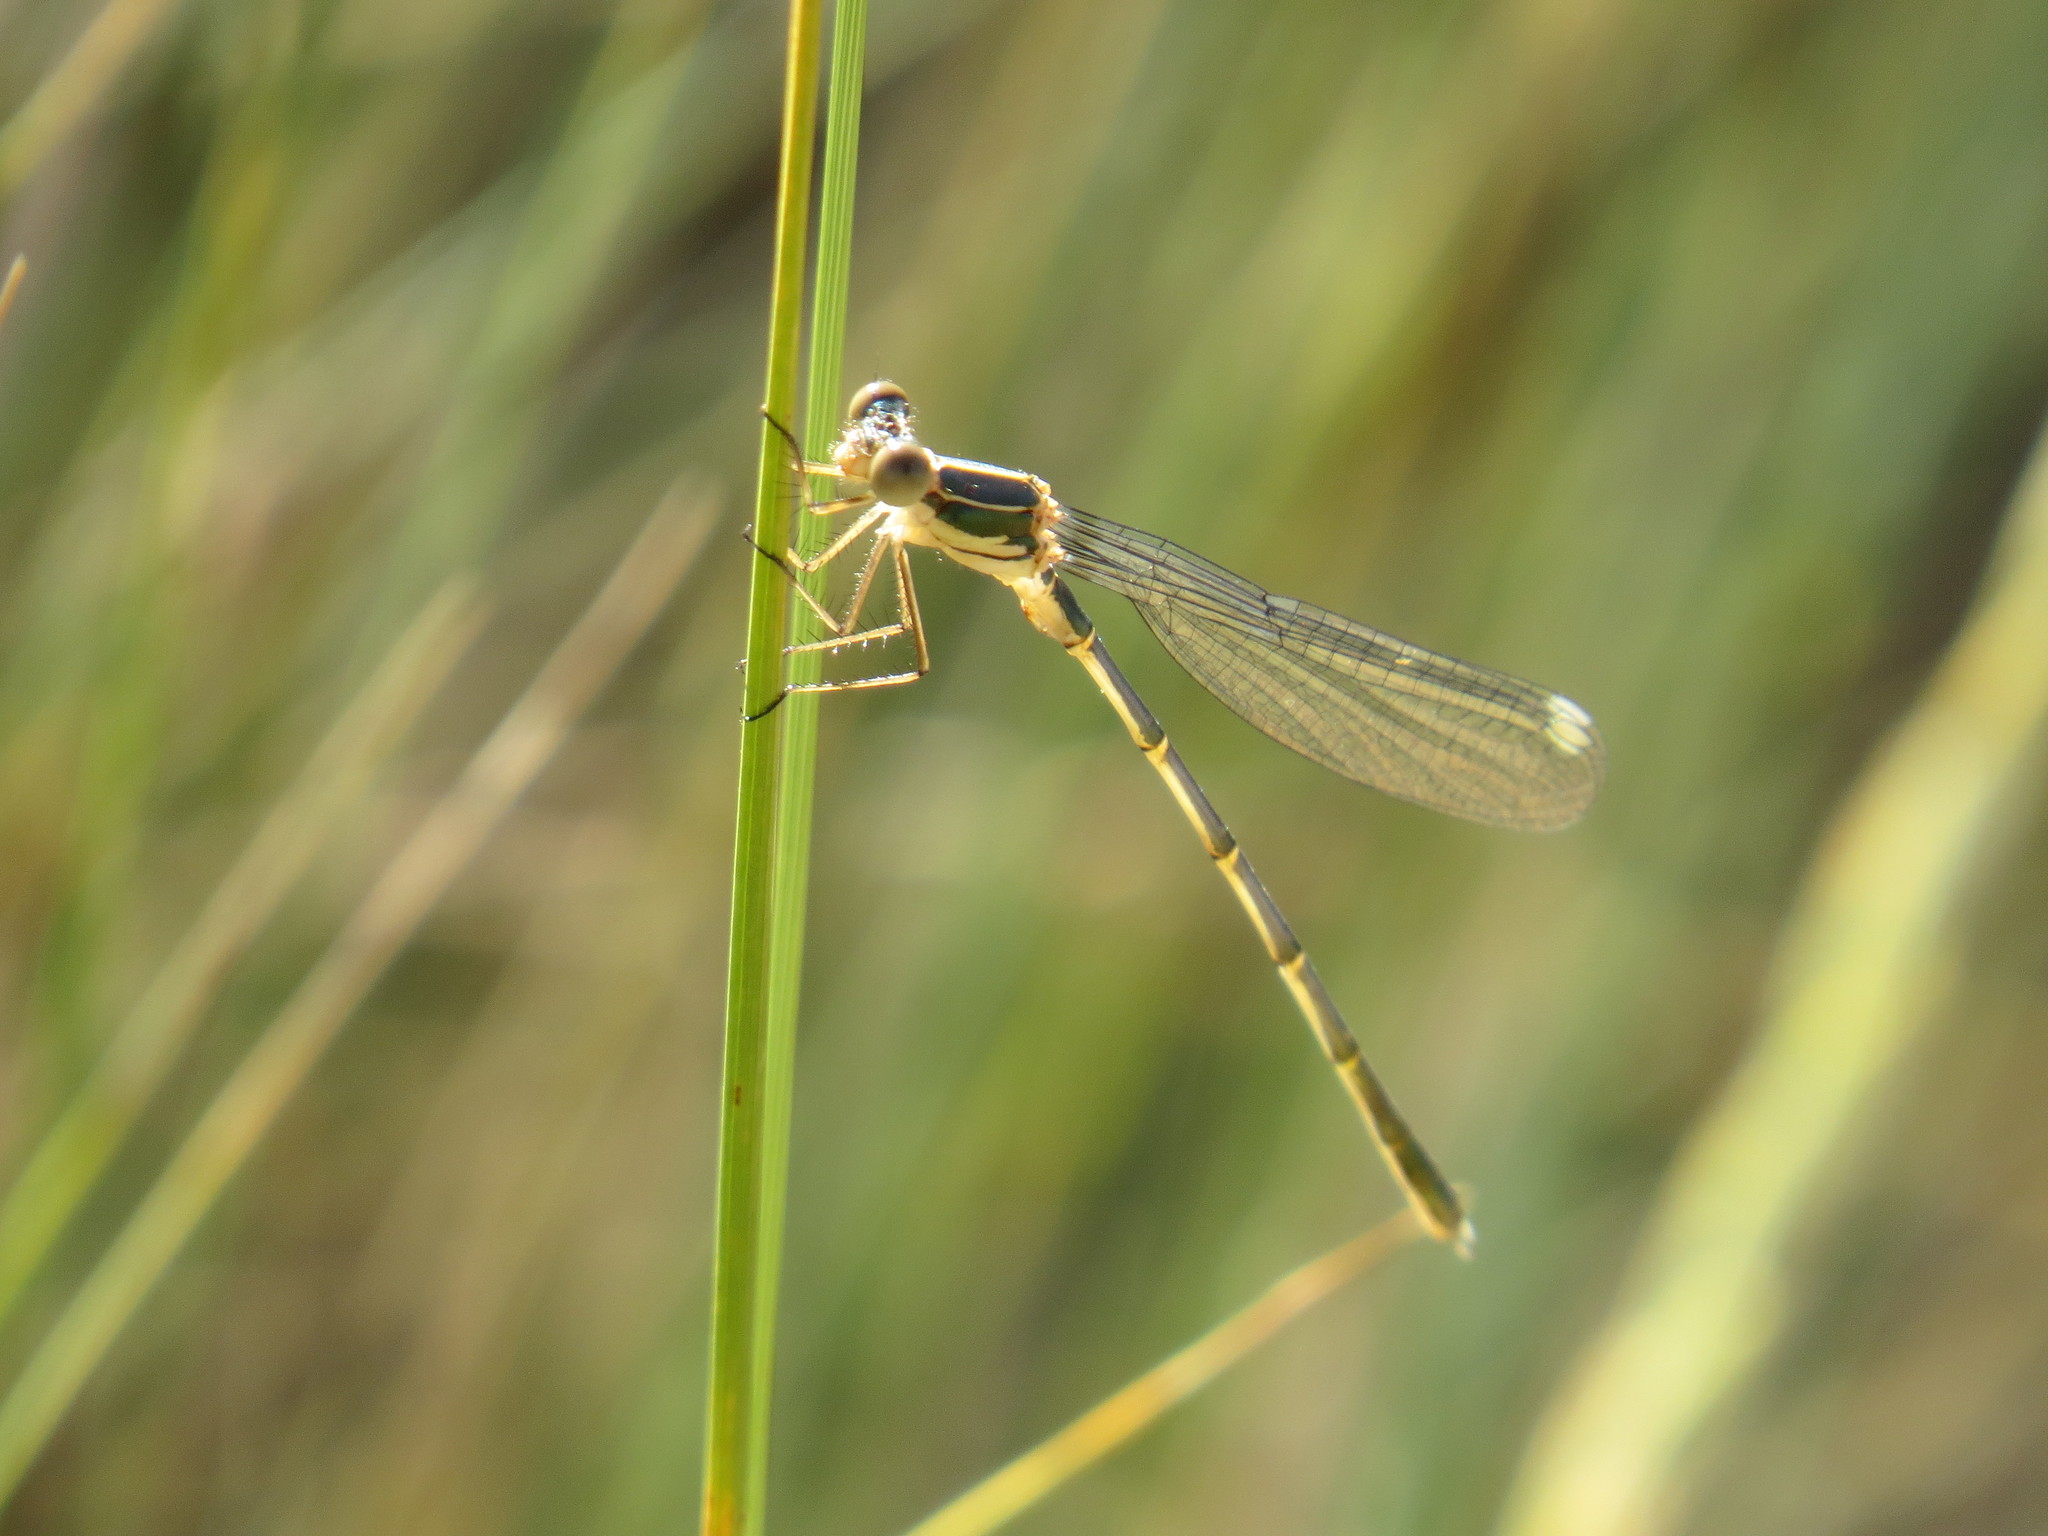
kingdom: Animalia
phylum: Arthropoda
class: Insecta
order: Odonata
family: Lestidae
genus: Chalcolestes
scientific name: Chalcolestes viridis
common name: Green emerald damselfly
